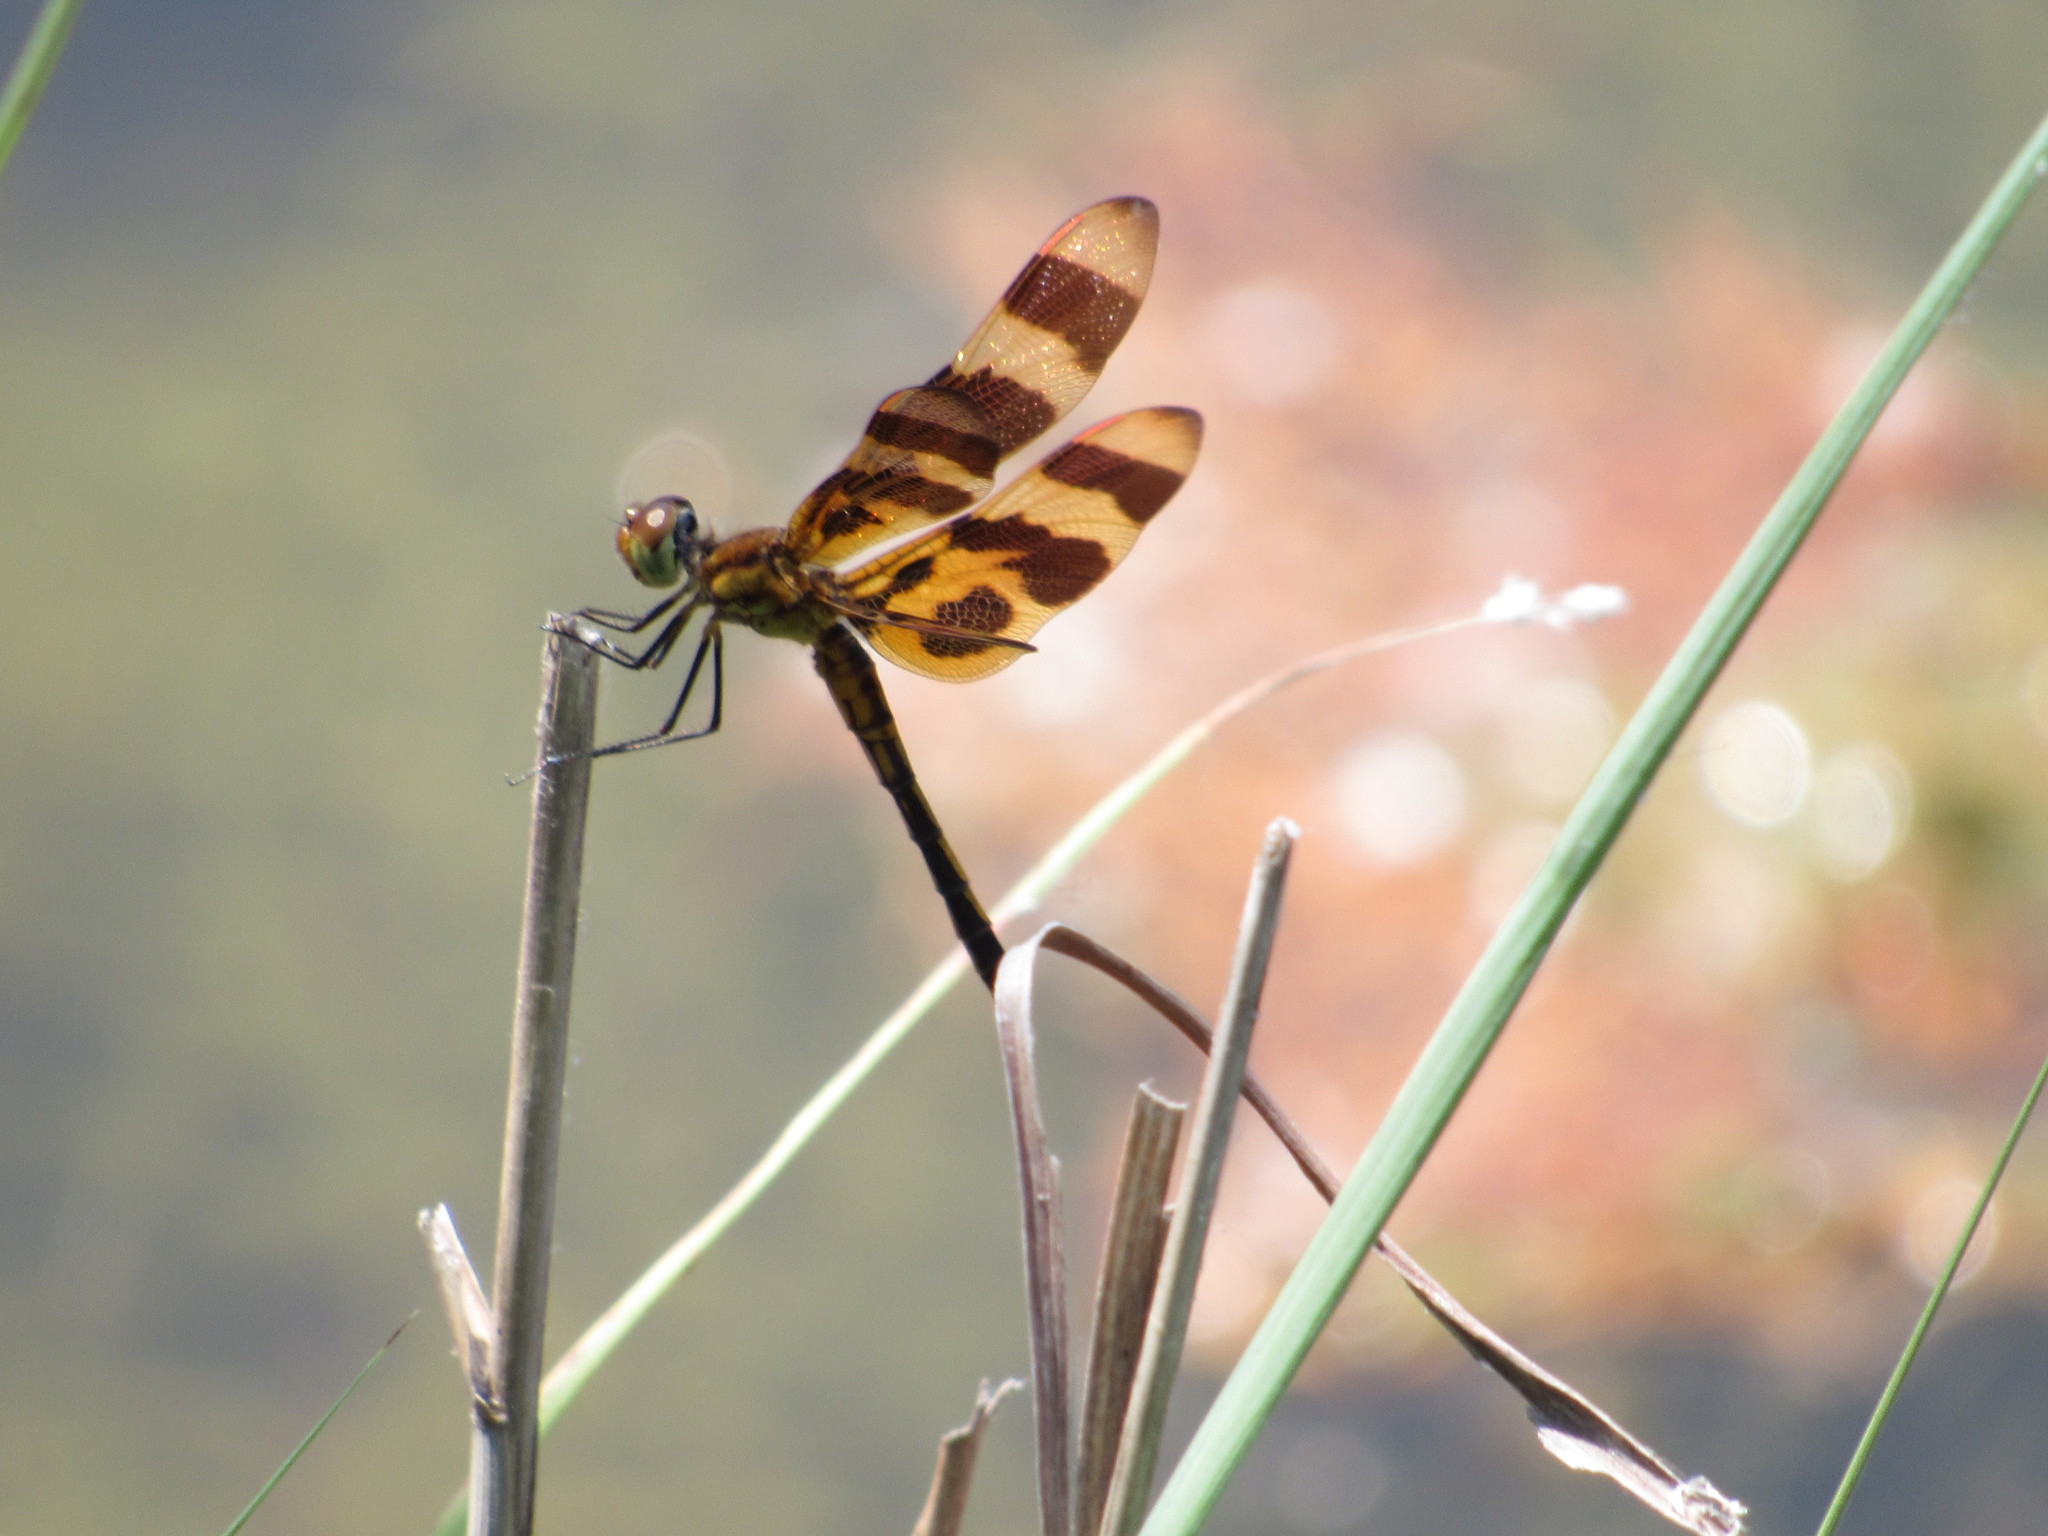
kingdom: Animalia
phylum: Arthropoda
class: Insecta
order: Odonata
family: Libellulidae
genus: Celithemis
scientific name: Celithemis eponina
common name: Halloween pennant
